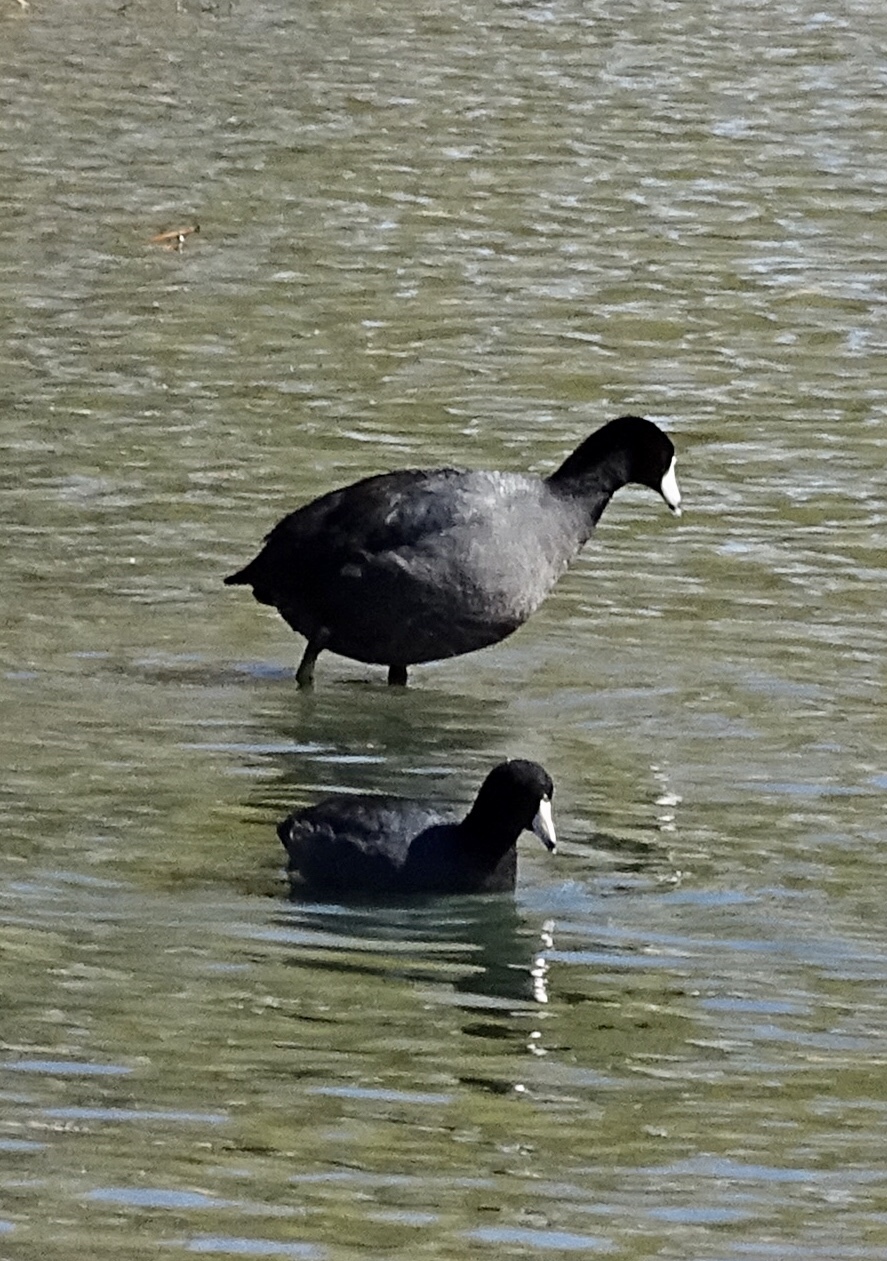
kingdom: Animalia
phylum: Chordata
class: Aves
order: Gruiformes
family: Rallidae
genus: Fulica
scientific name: Fulica americana
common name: American coot
